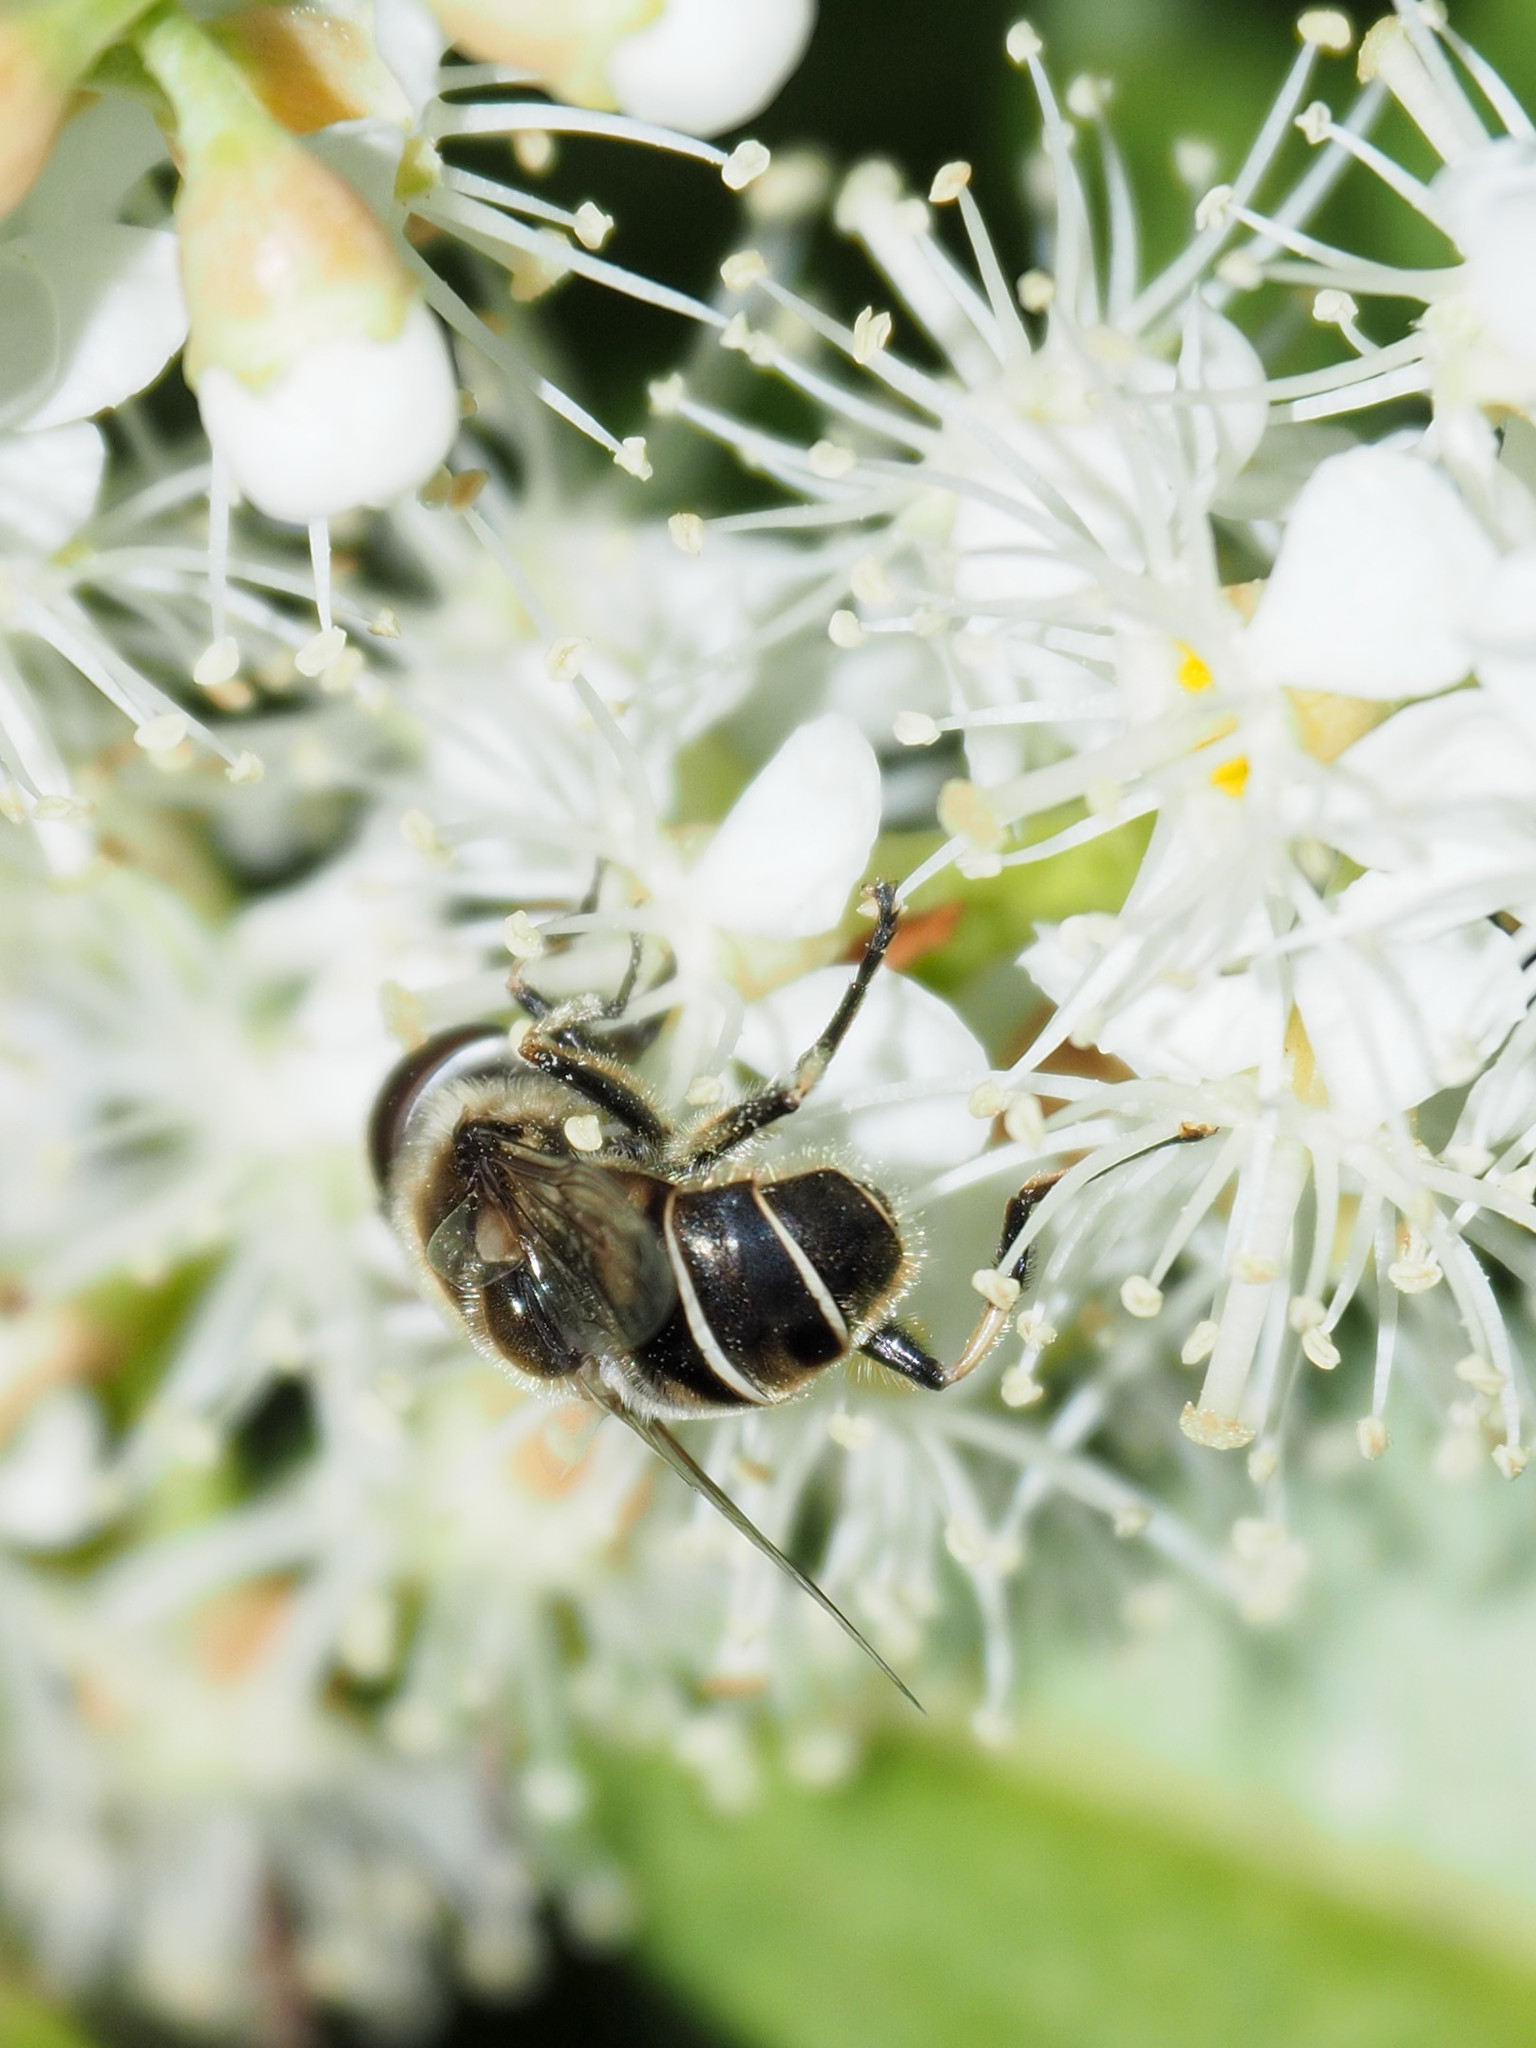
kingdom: Animalia
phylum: Arthropoda
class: Insecta
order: Diptera
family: Syrphidae
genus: Eristalis
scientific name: Eristalis dimidiata
